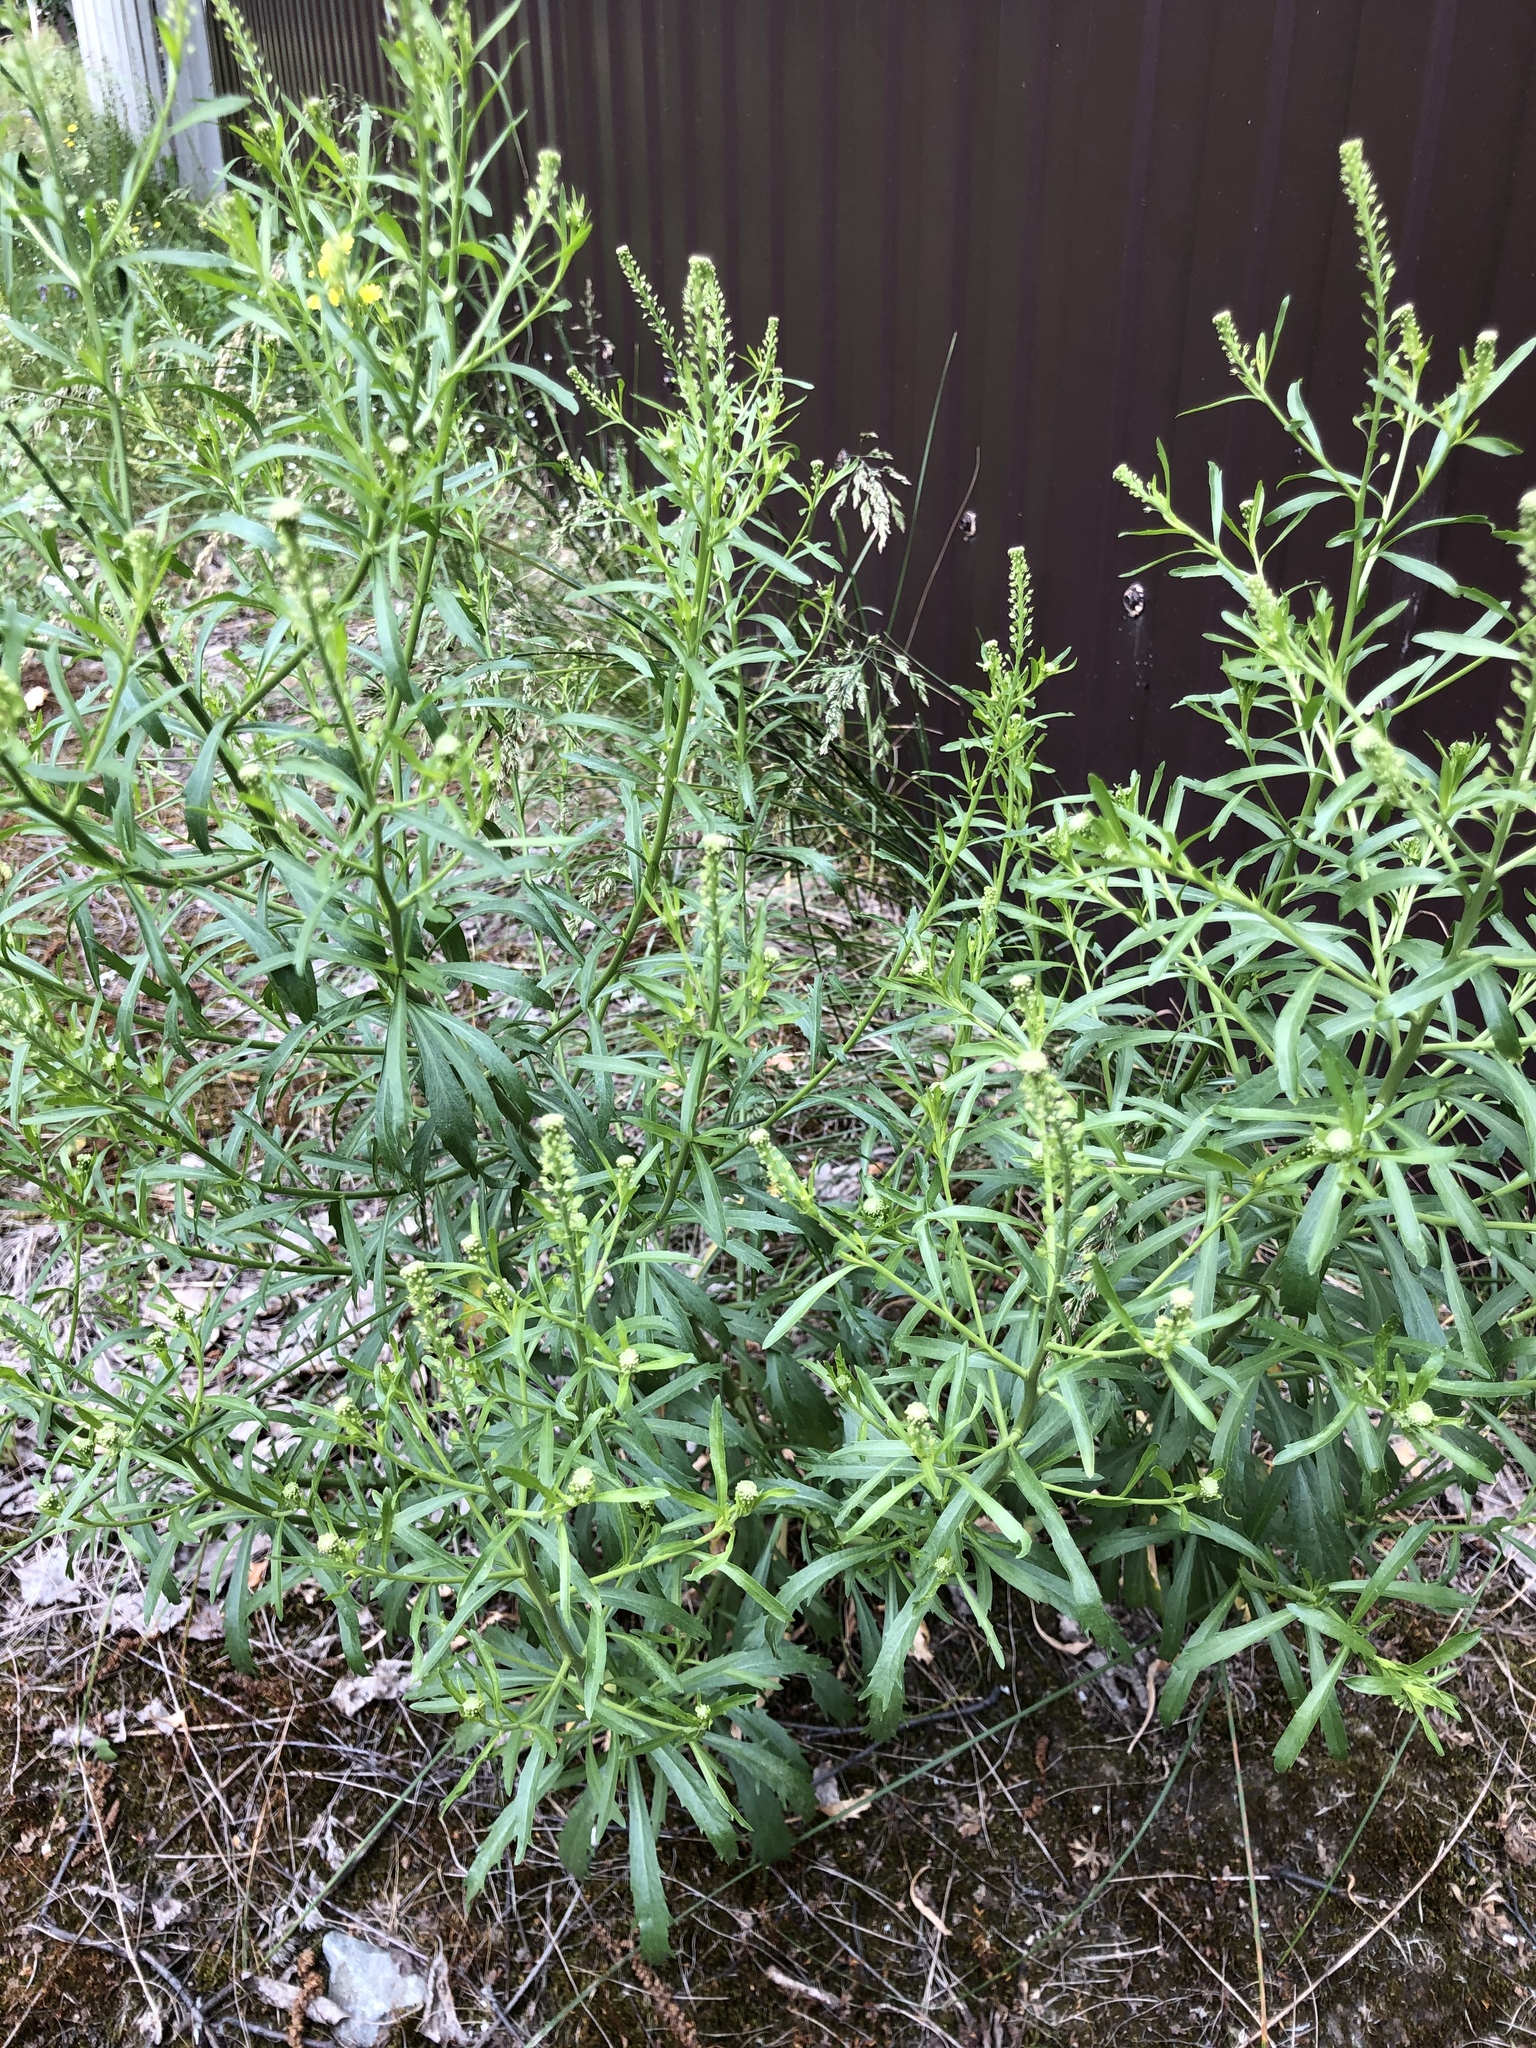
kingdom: Plantae
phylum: Tracheophyta
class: Magnoliopsida
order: Brassicales
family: Brassicaceae
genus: Lepidium
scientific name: Lepidium densiflorum
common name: Miner's pepperwort
